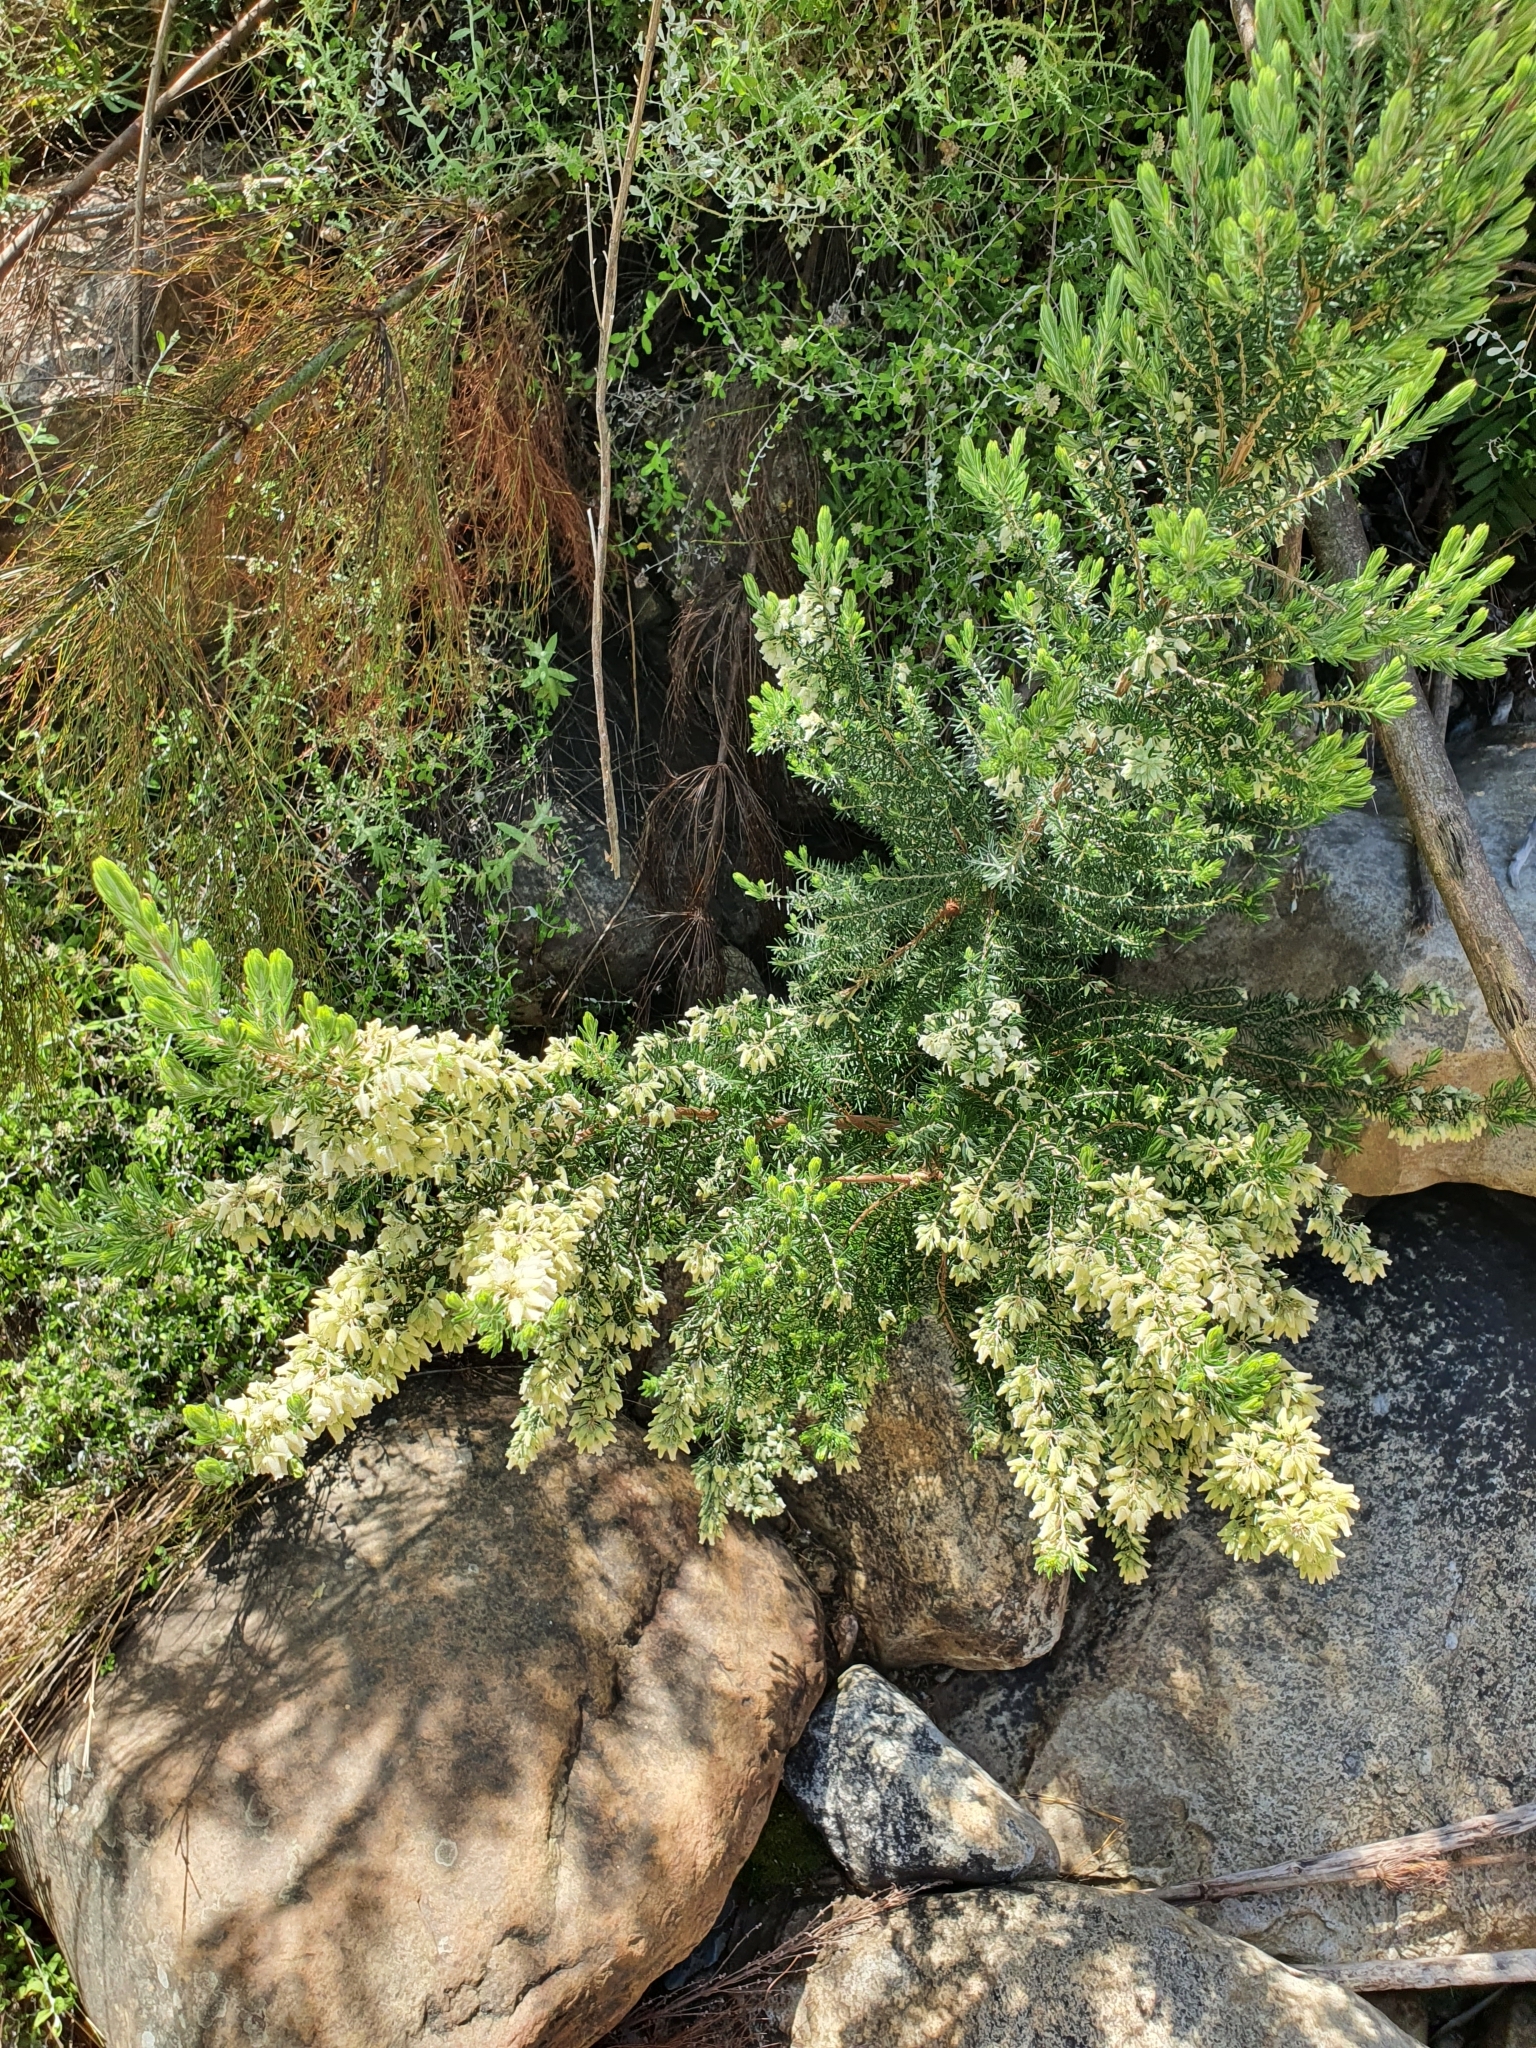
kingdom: Plantae
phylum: Tracheophyta
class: Magnoliopsida
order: Ericales
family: Ericaceae
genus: Erica
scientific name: Erica caffra
